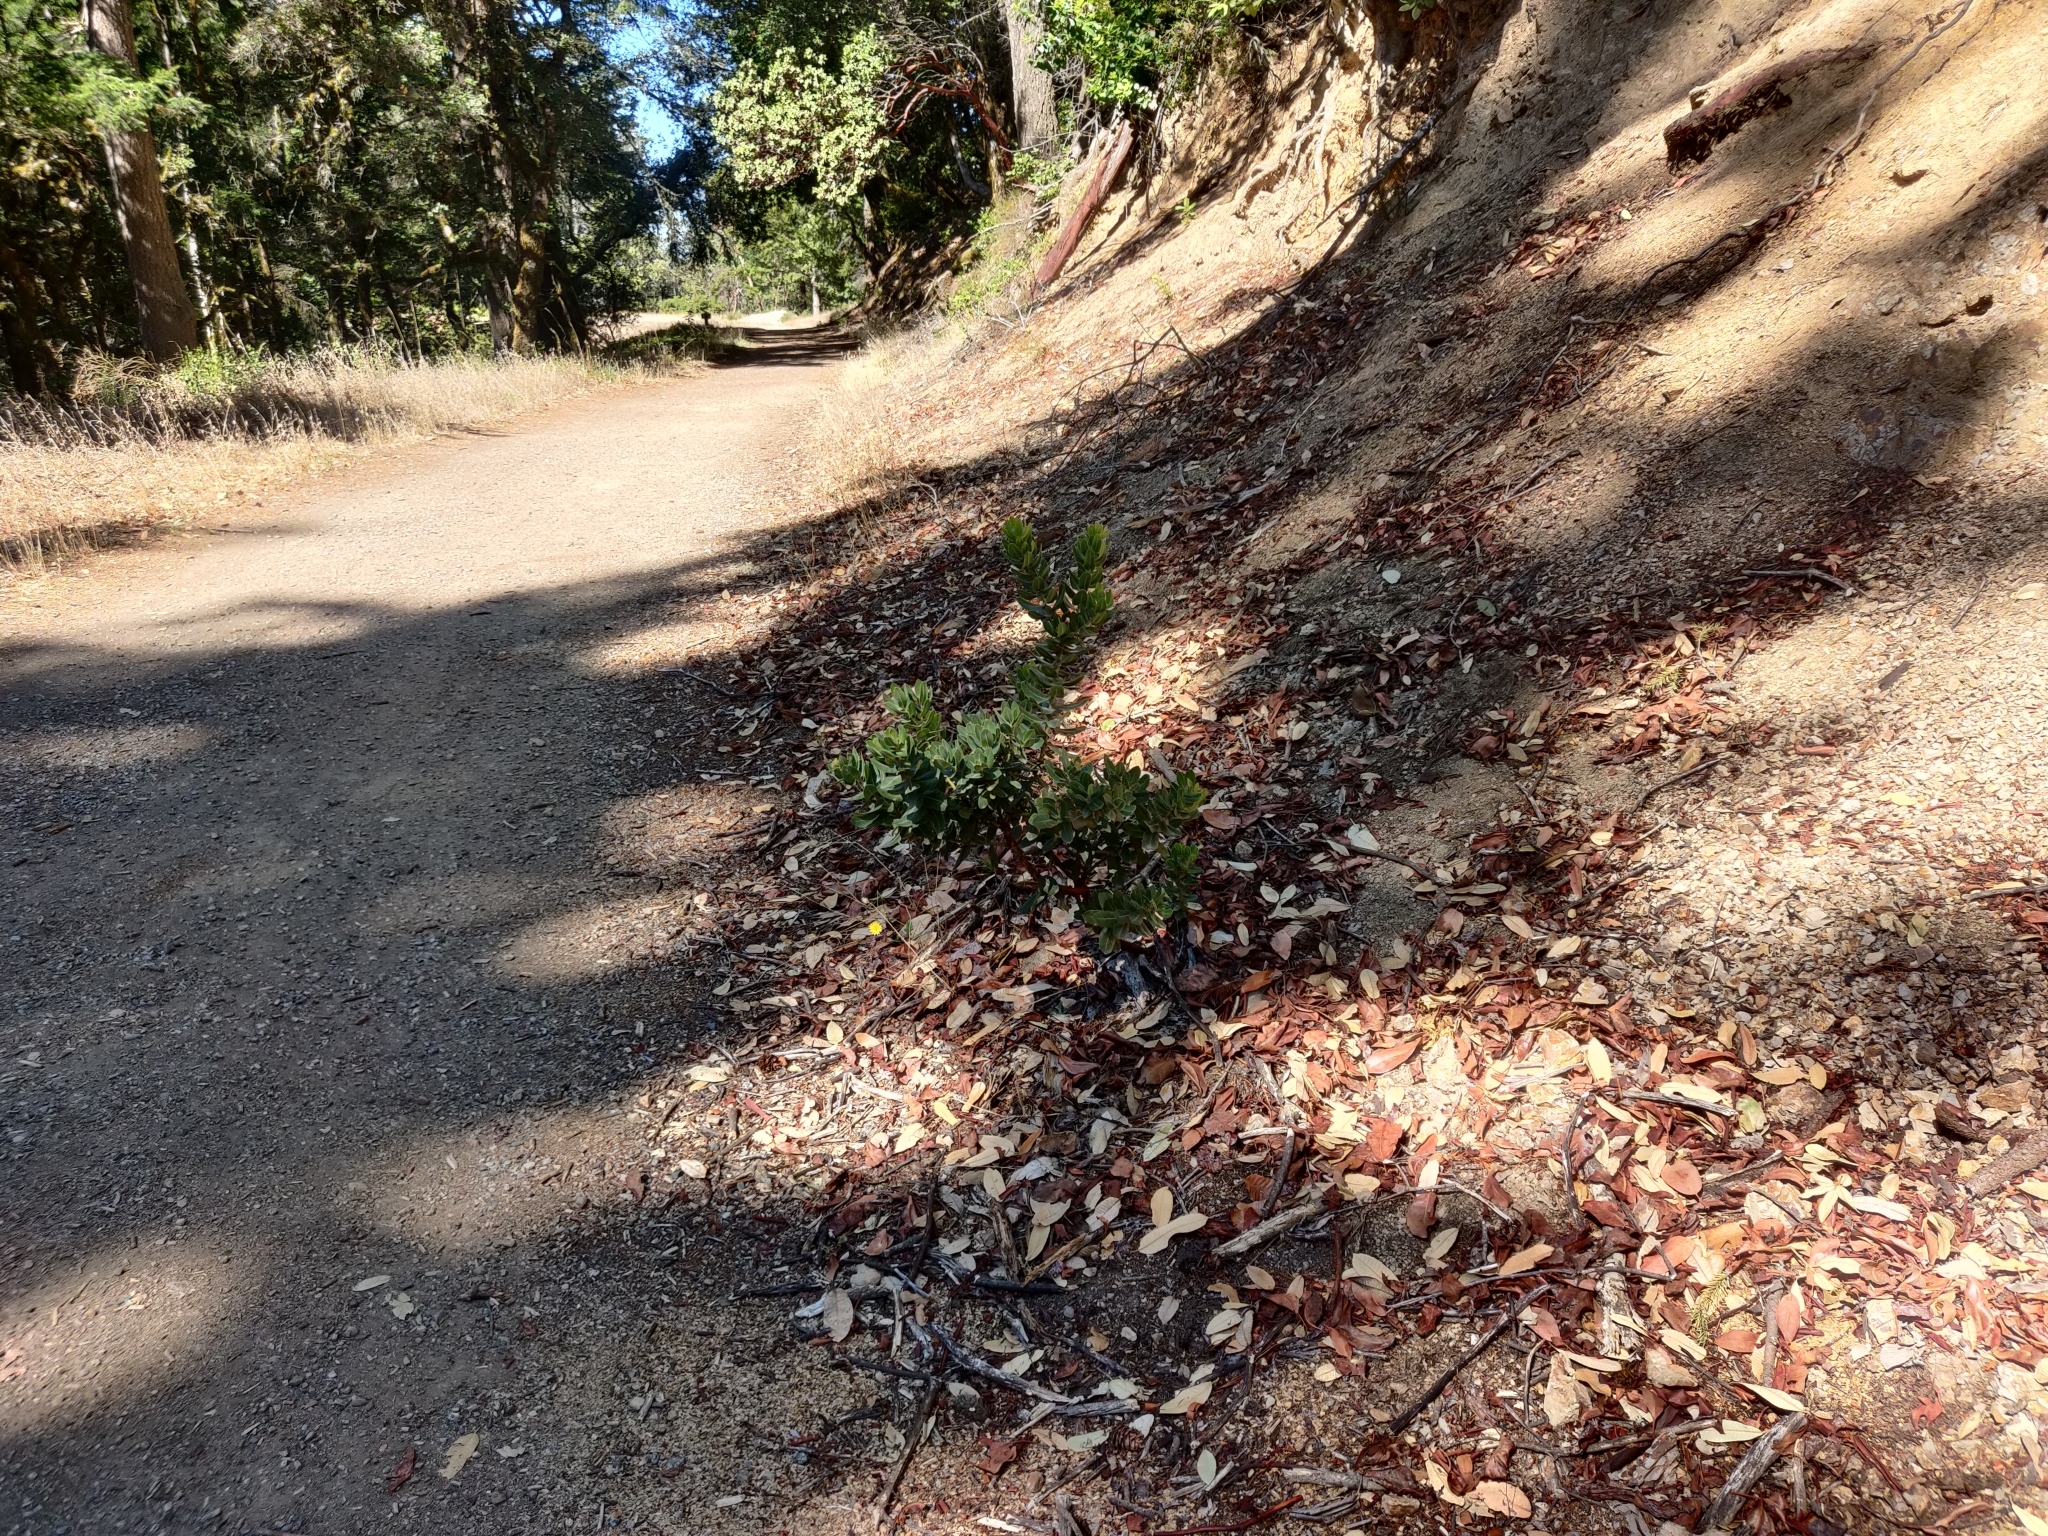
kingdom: Plantae
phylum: Tracheophyta
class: Magnoliopsida
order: Ericales
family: Ericaceae
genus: Arctostaphylos
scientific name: Arctostaphylos regismontana
